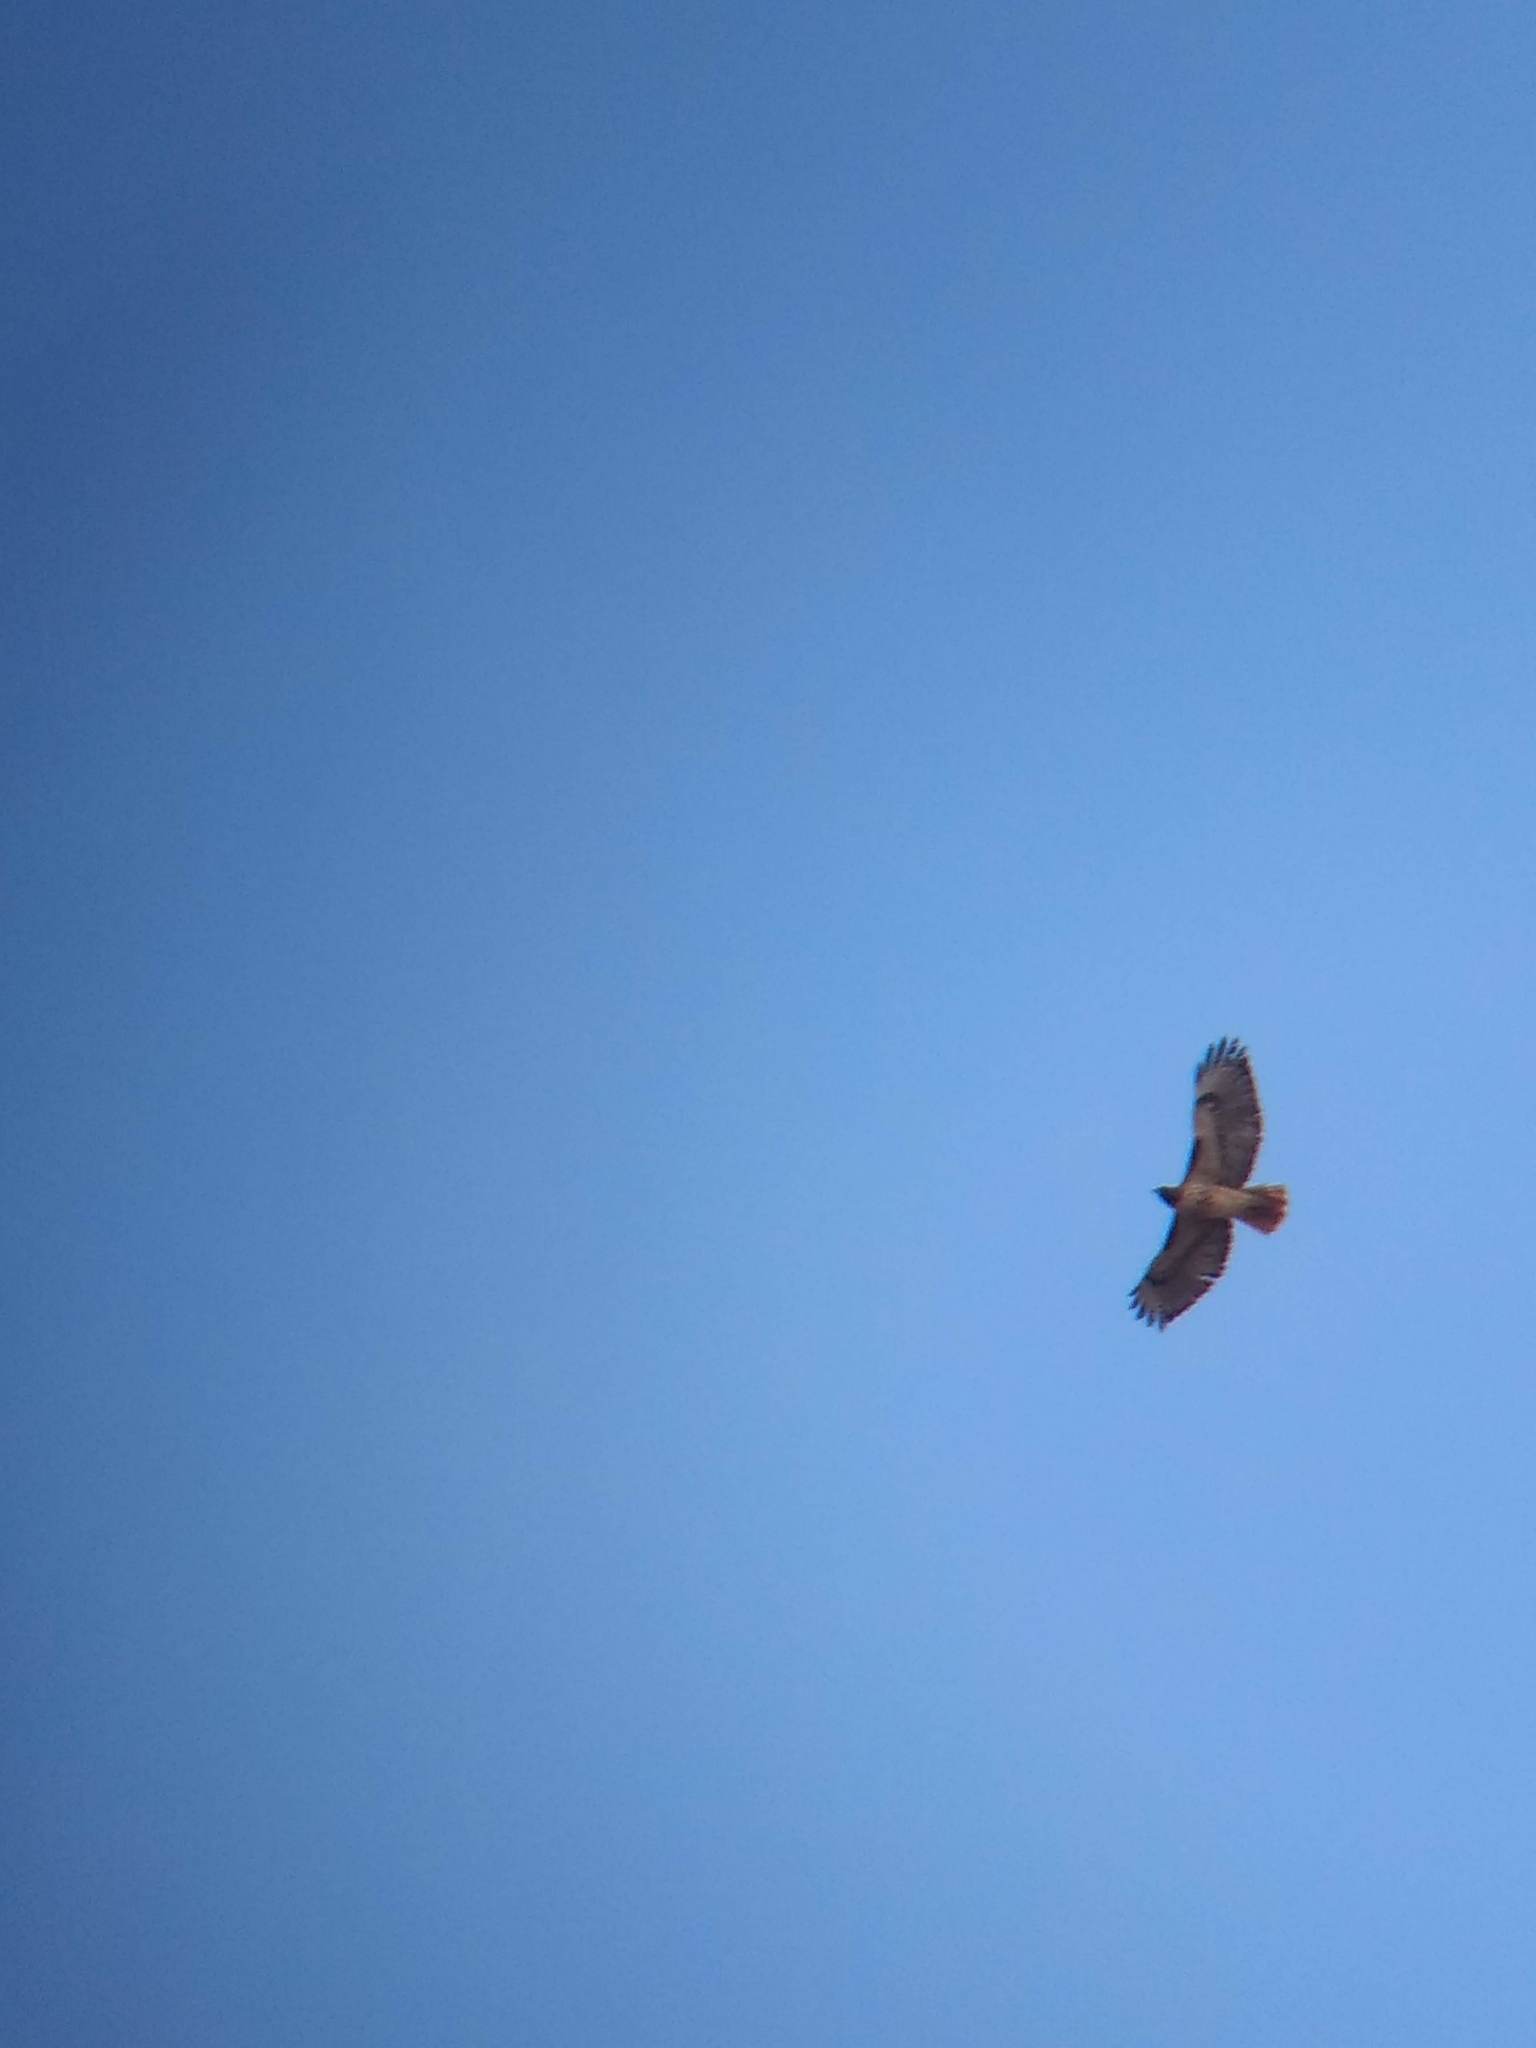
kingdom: Animalia
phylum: Chordata
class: Aves
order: Accipitriformes
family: Accipitridae
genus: Buteo
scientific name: Buteo jamaicensis
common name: Red-tailed hawk
